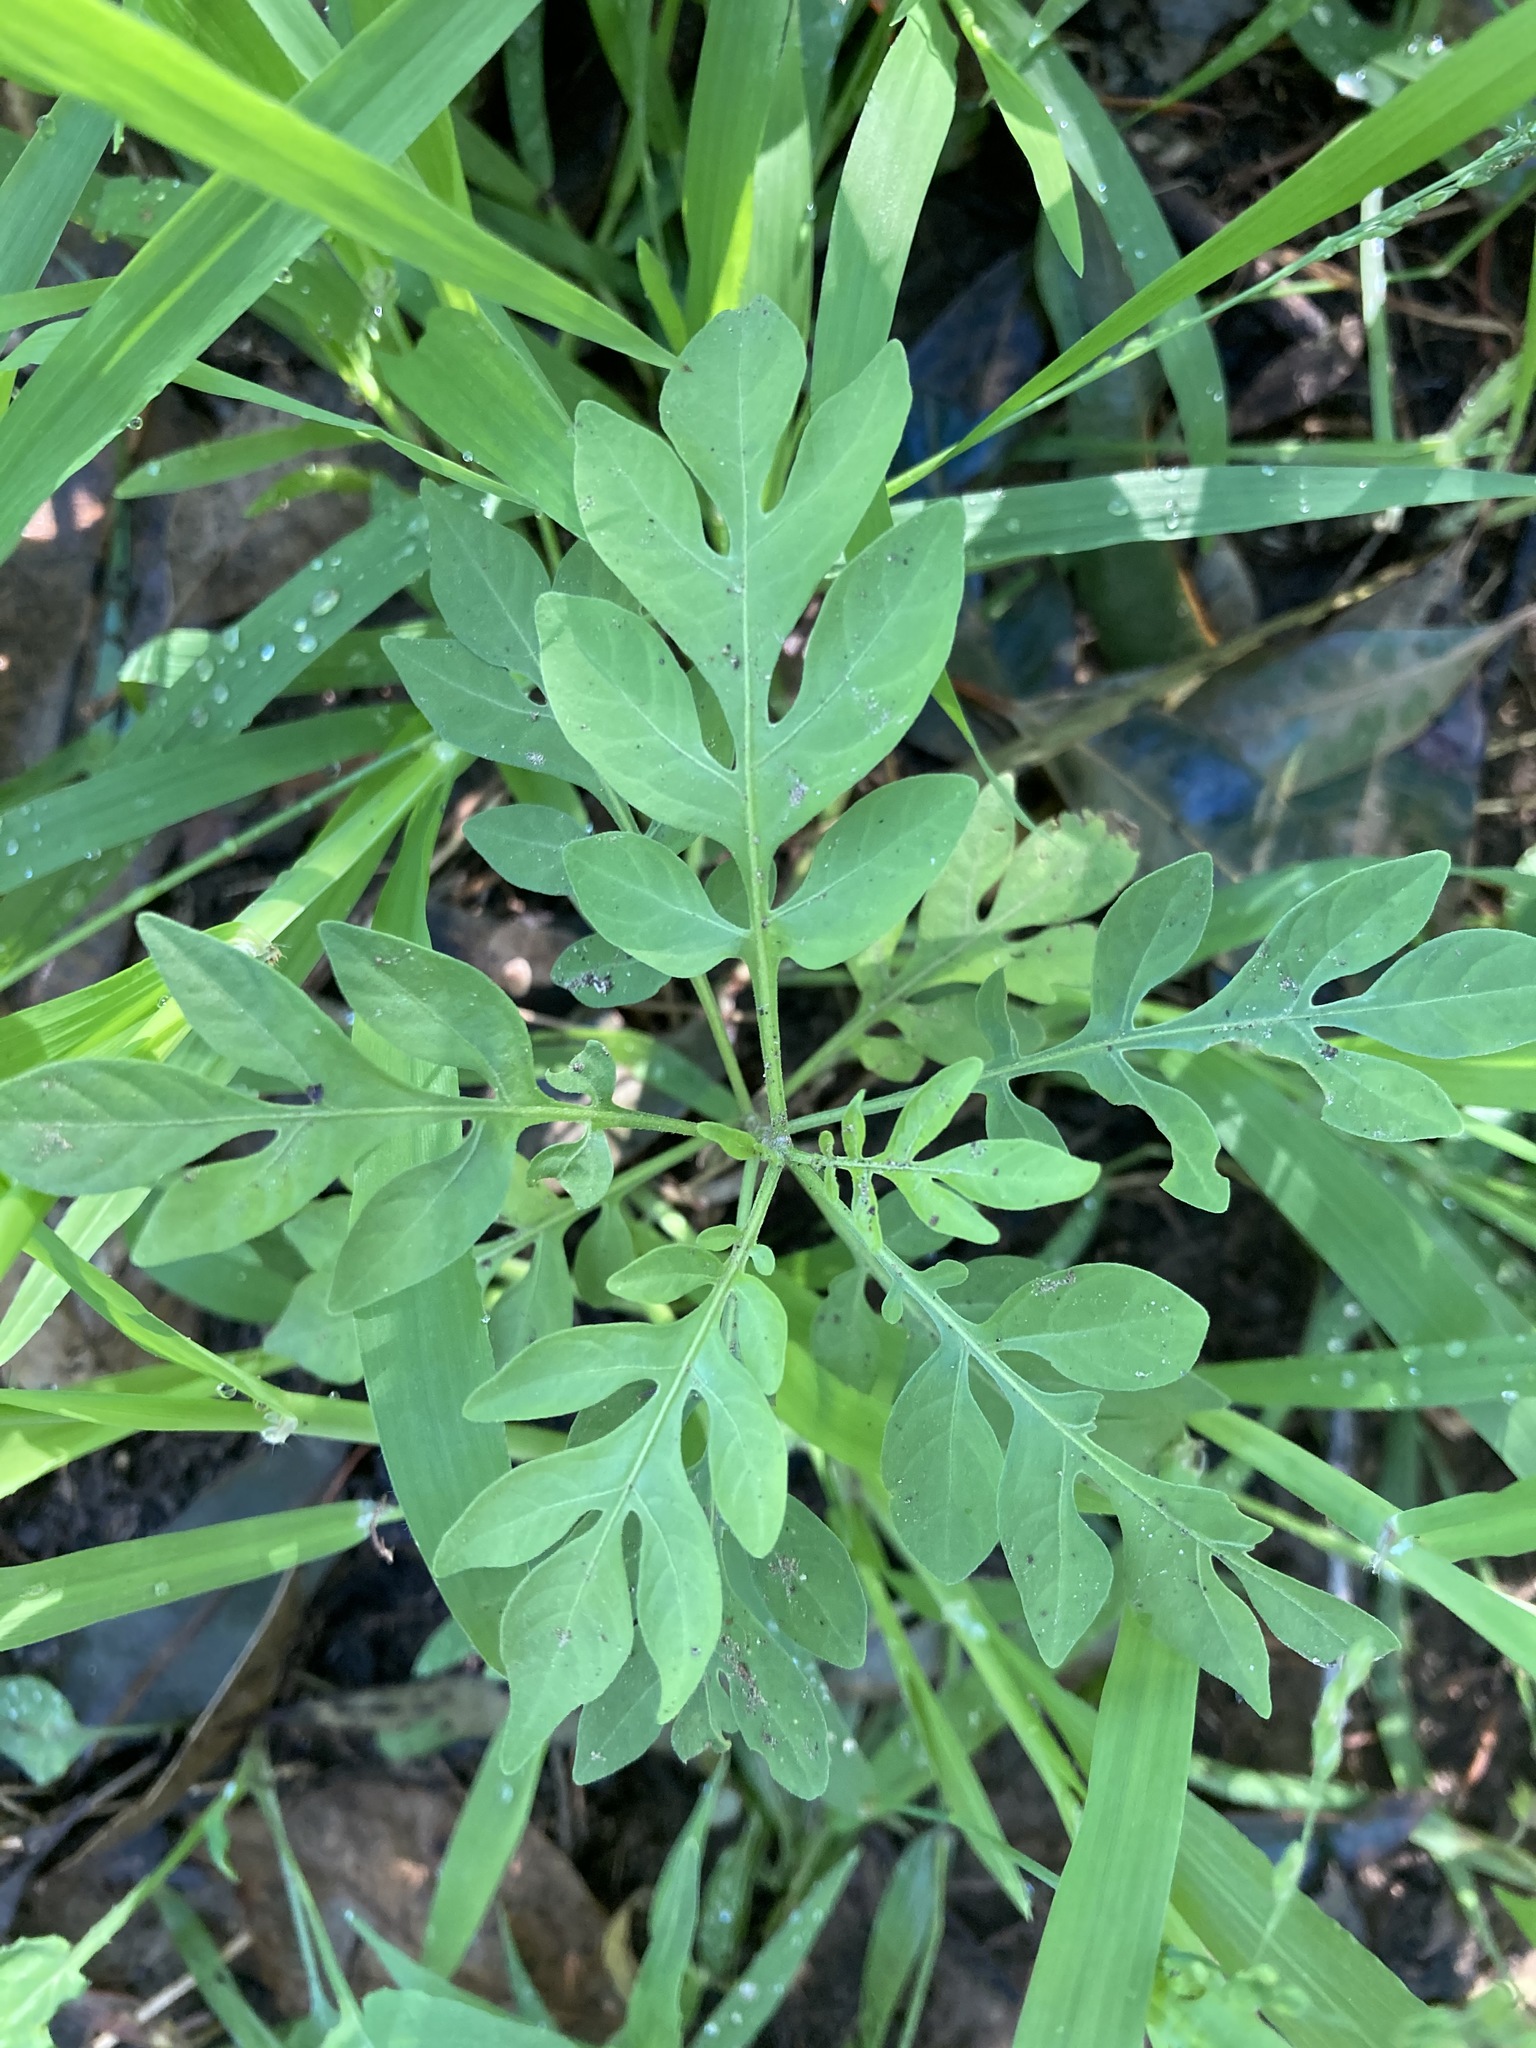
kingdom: Plantae
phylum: Tracheophyta
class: Magnoliopsida
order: Solanales
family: Solanaceae
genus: Solanum
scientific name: Solanum seaforthianum
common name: Brazilian nightshade
